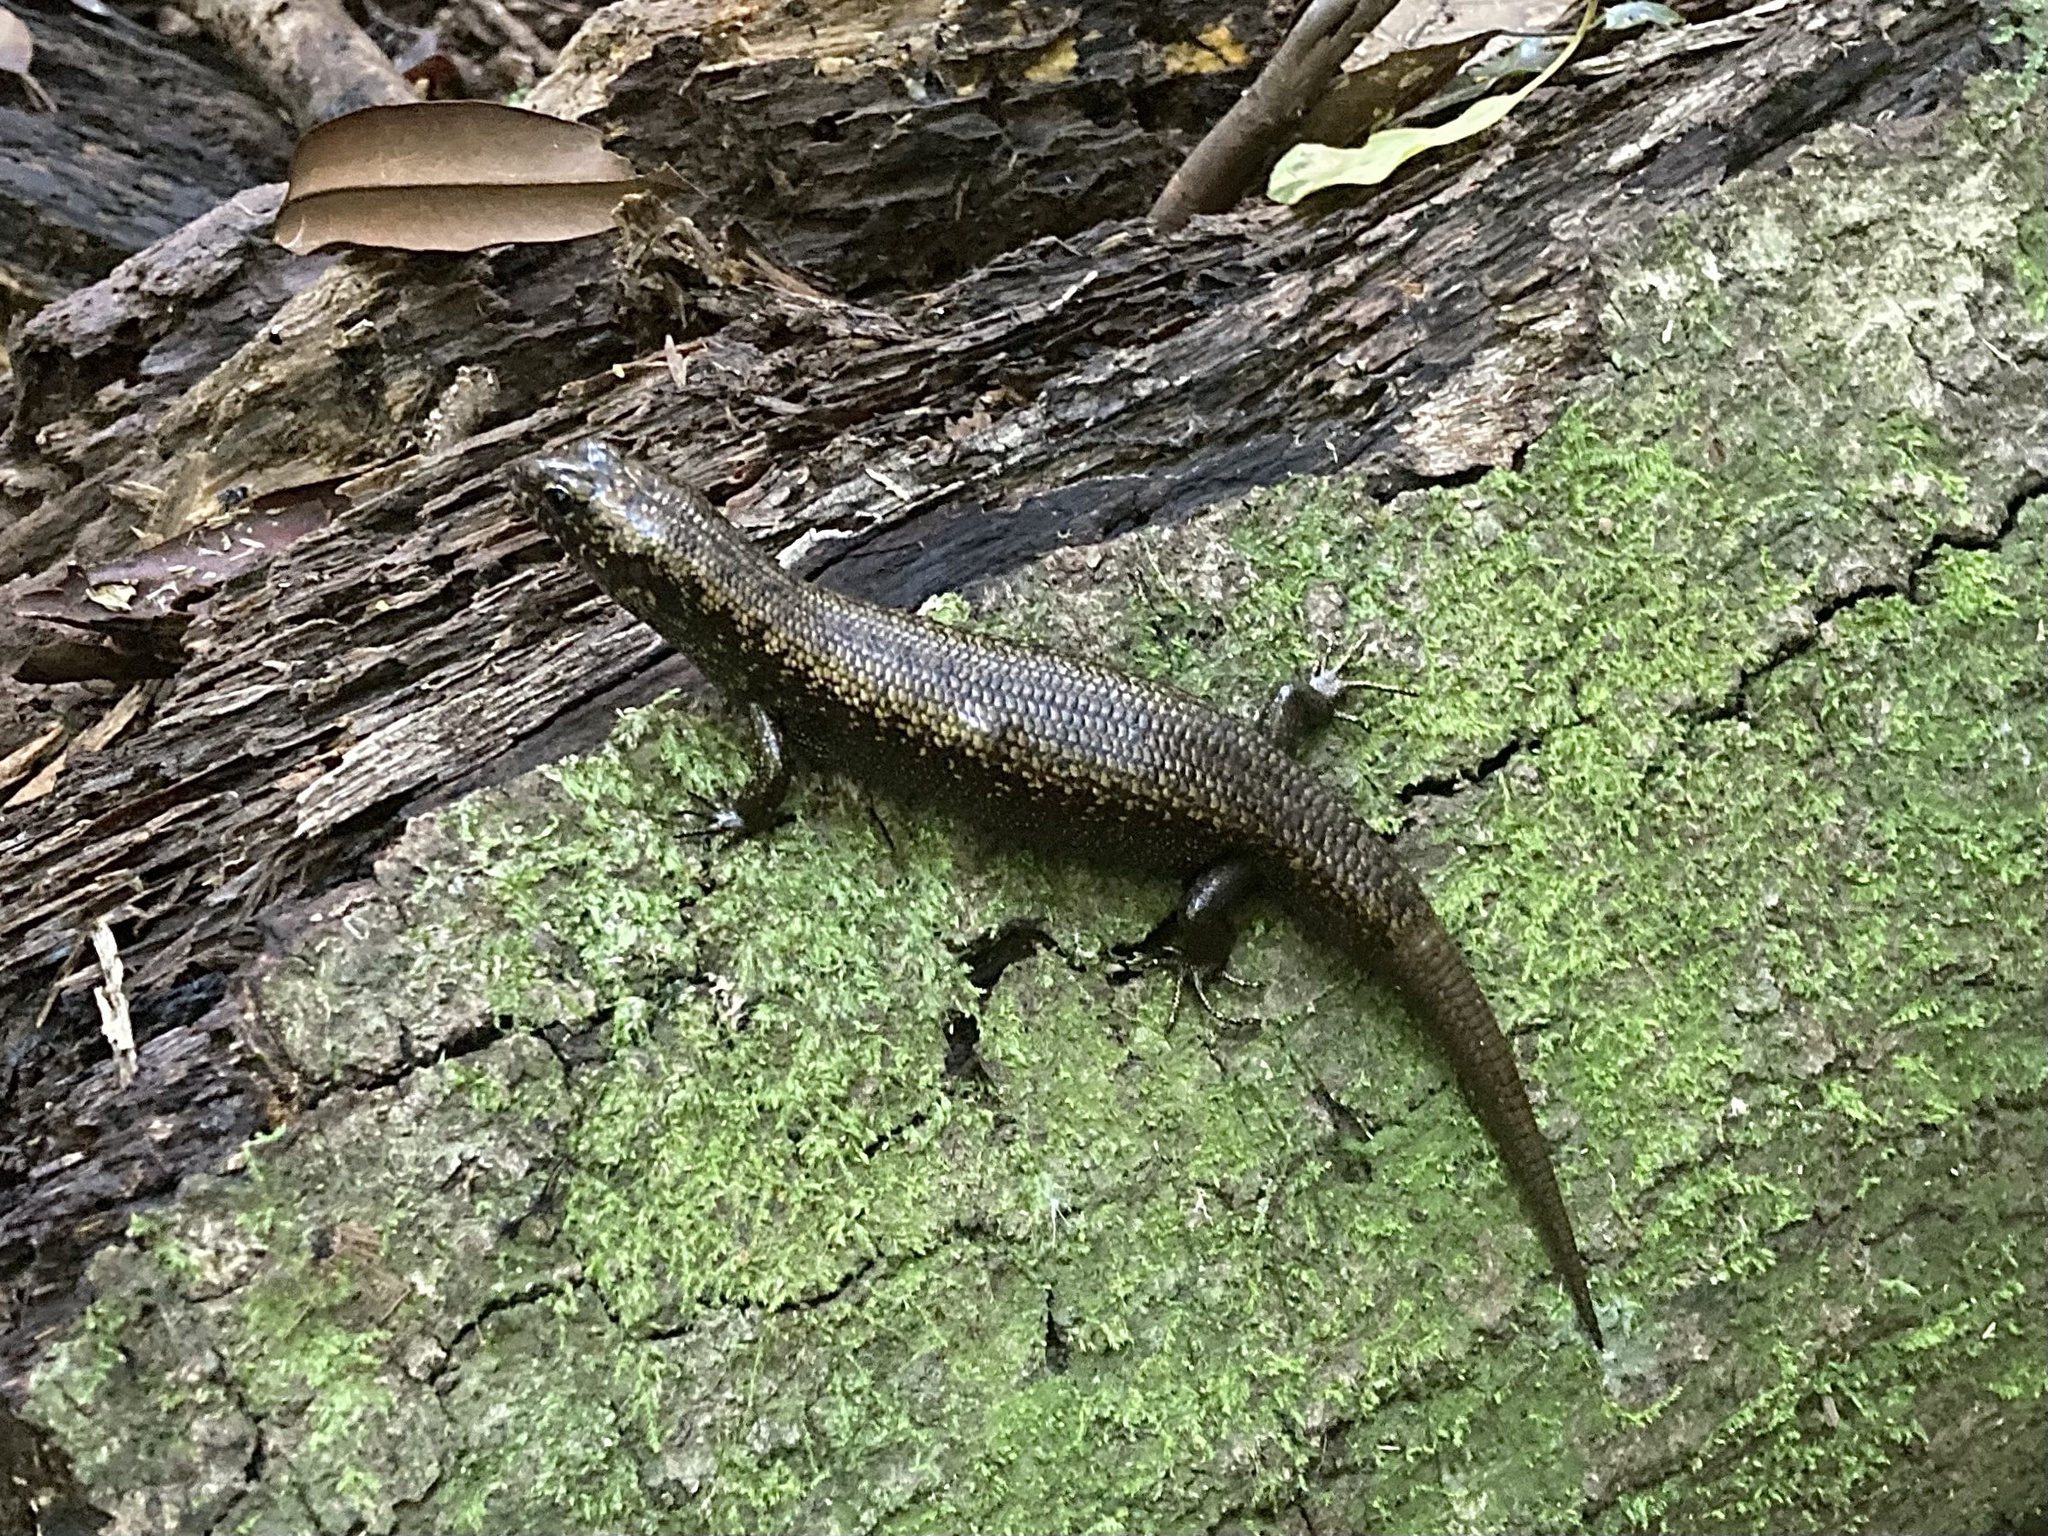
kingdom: Animalia
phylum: Chordata
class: Squamata
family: Scincidae
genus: Silvascincus
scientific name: Silvascincus murrayi
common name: Blue-speckled forest-skink
